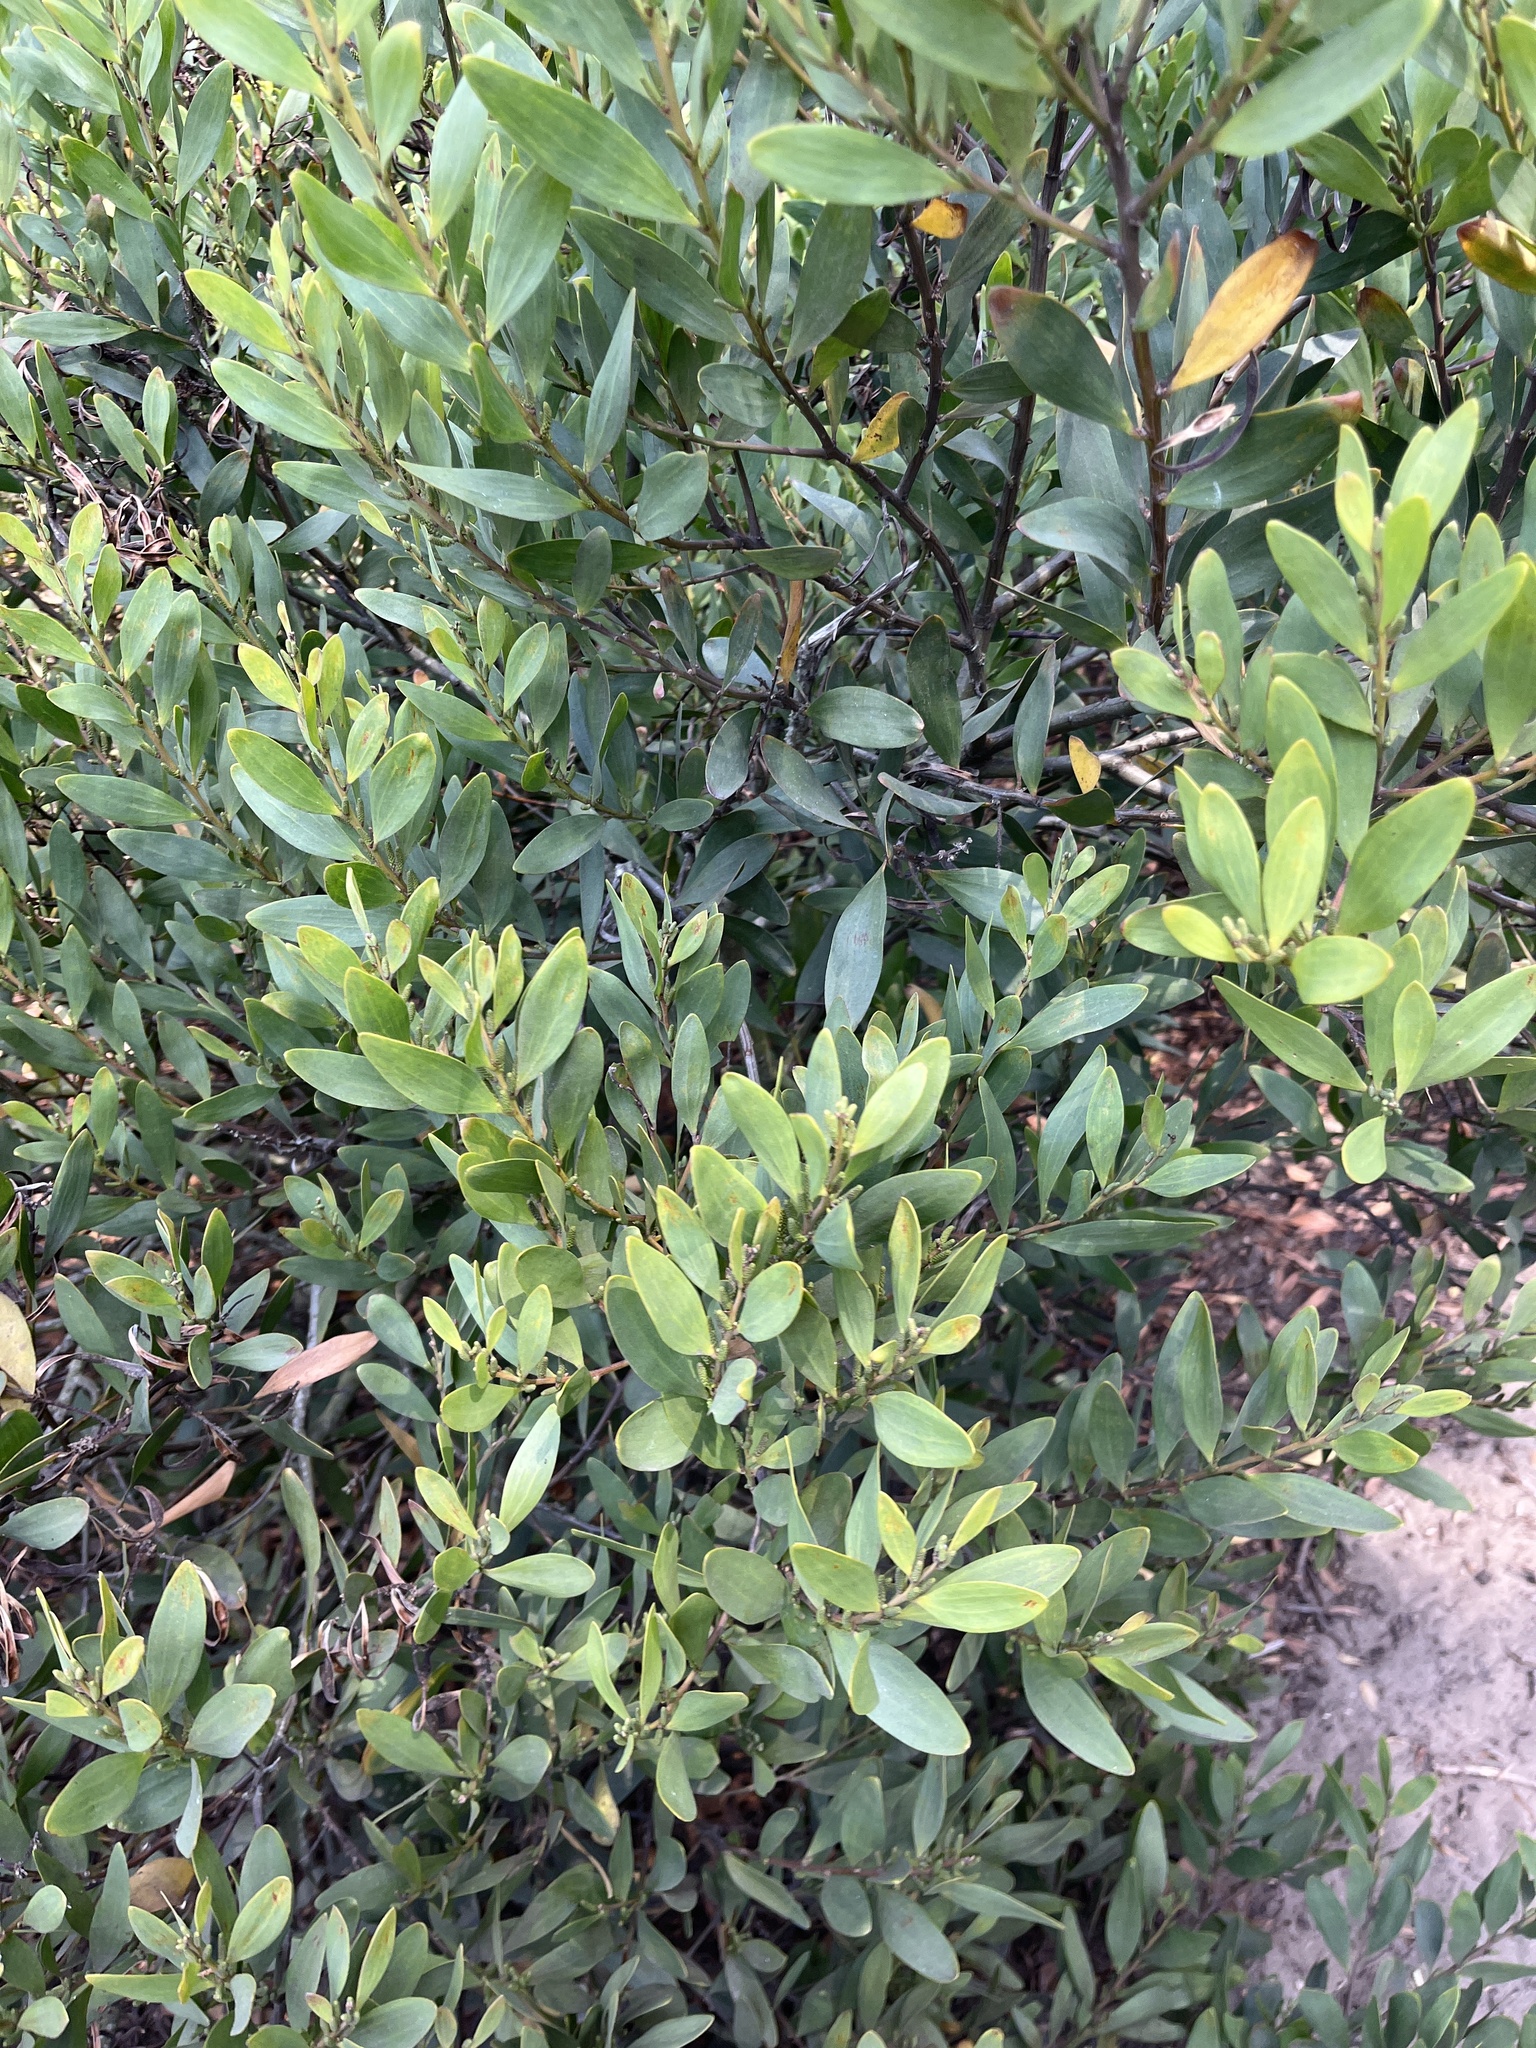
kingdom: Plantae
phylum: Tracheophyta
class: Magnoliopsida
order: Fabales
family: Fabaceae
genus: Acacia
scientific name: Acacia longifolia
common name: Sydney golden wattle
